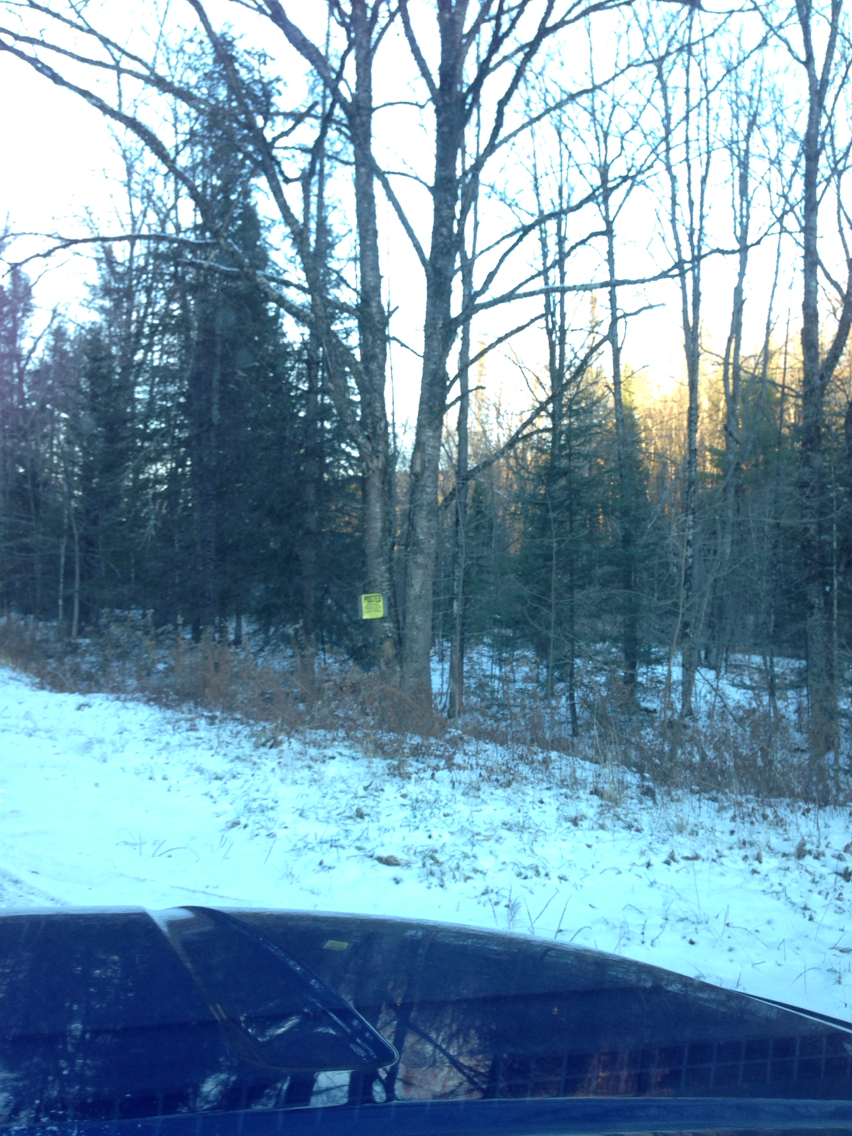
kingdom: Plantae
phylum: Tracheophyta
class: Magnoliopsida
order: Fagales
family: Betulaceae
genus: Betula
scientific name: Betula alleghaniensis
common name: Yellow birch
